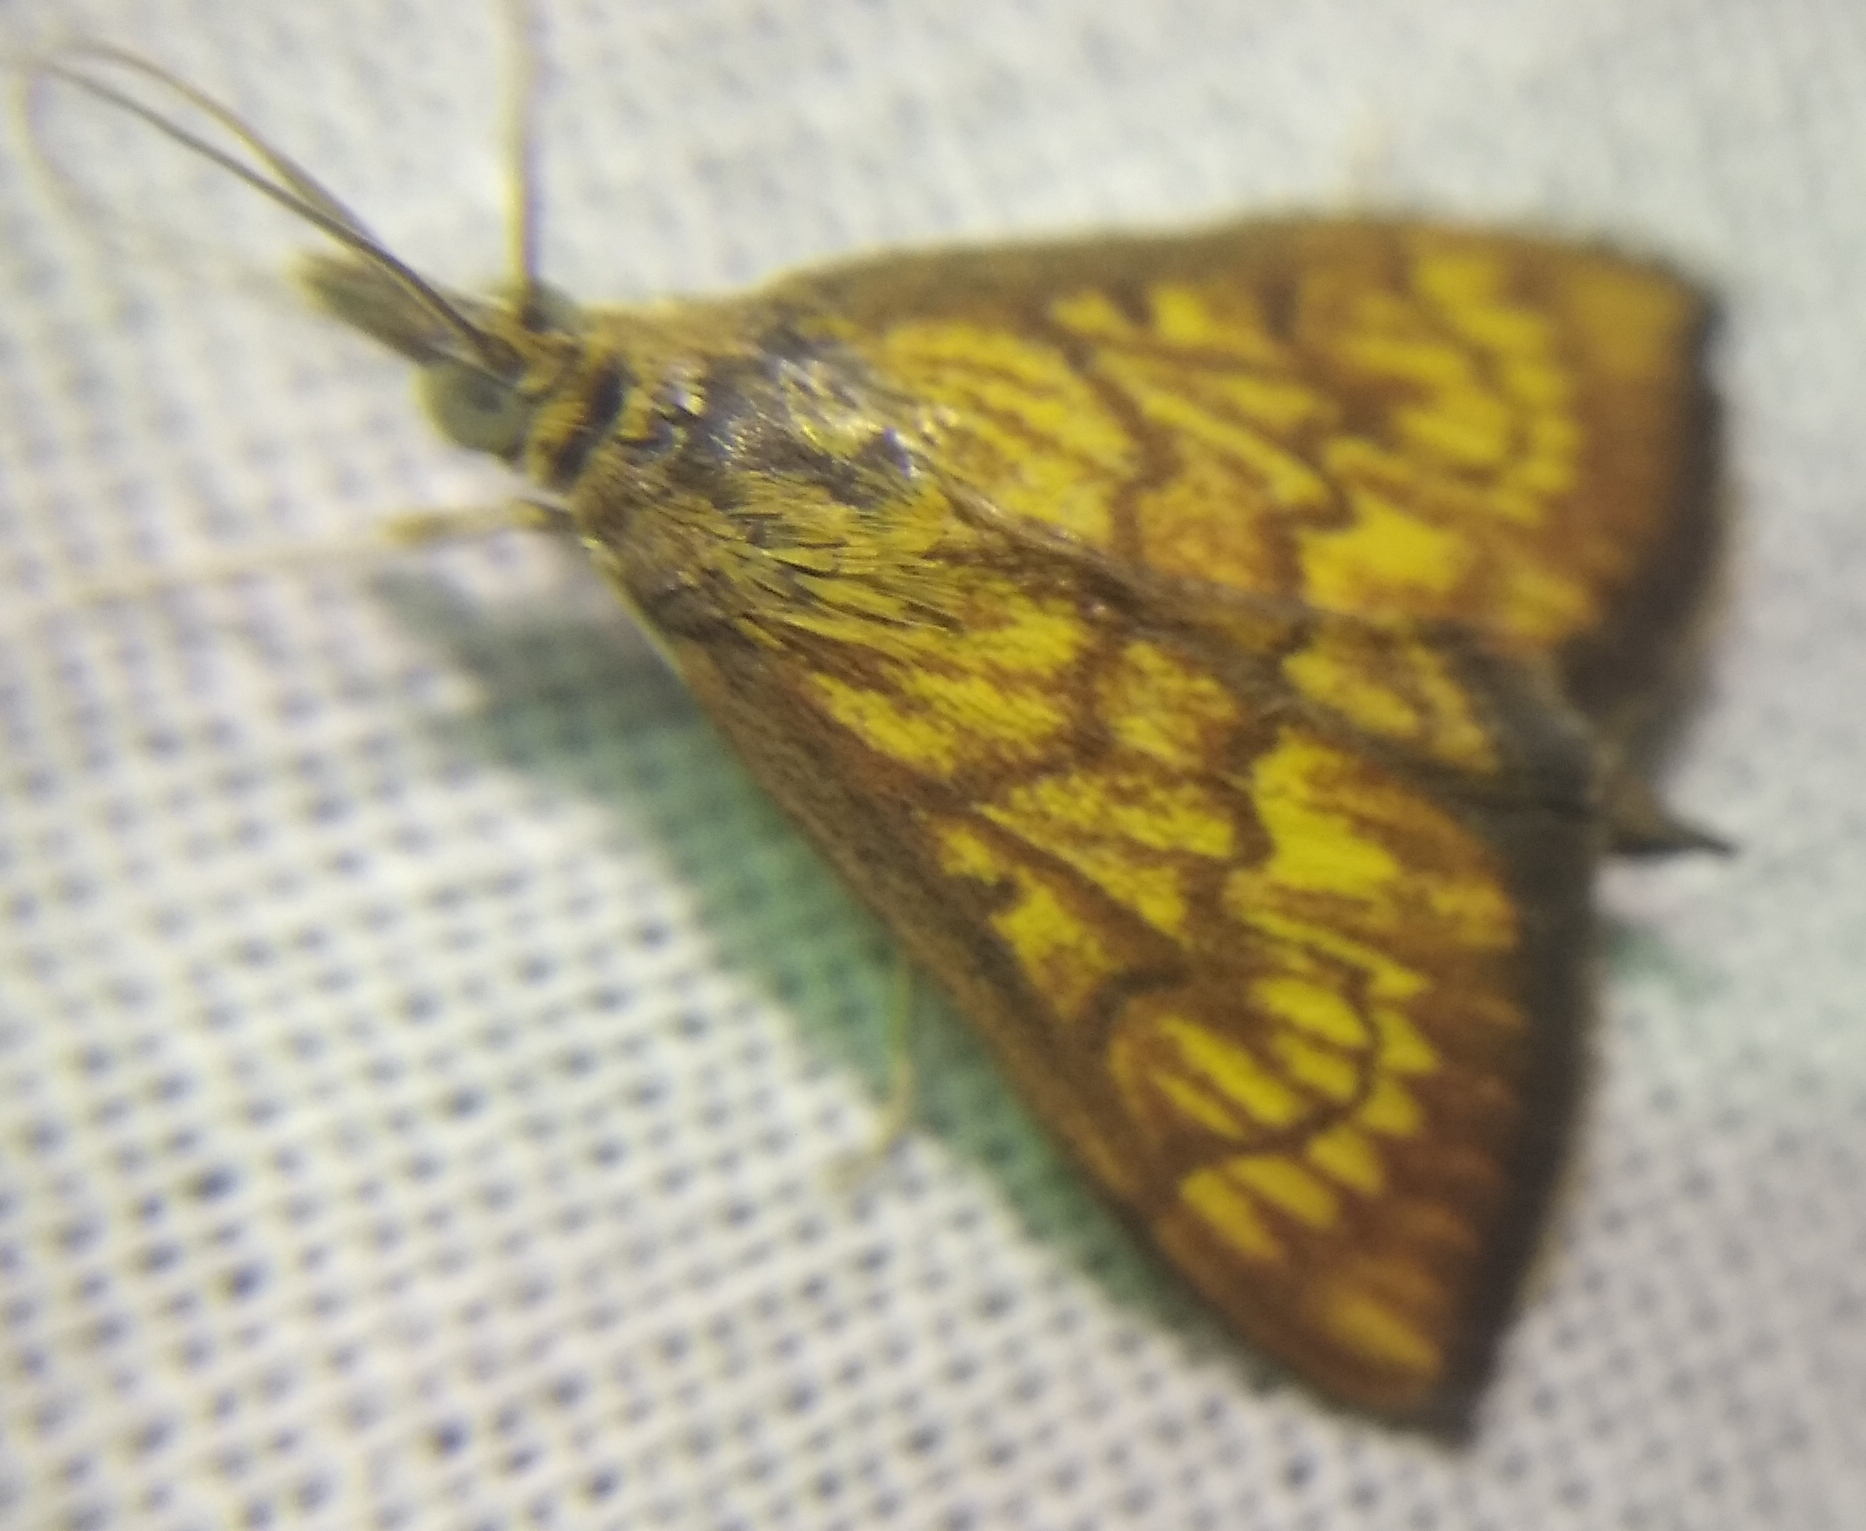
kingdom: Animalia
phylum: Arthropoda
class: Insecta
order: Lepidoptera
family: Crambidae
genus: Ecpyrrhorrhoe
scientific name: Ecpyrrhorrhoe rubiginalis
